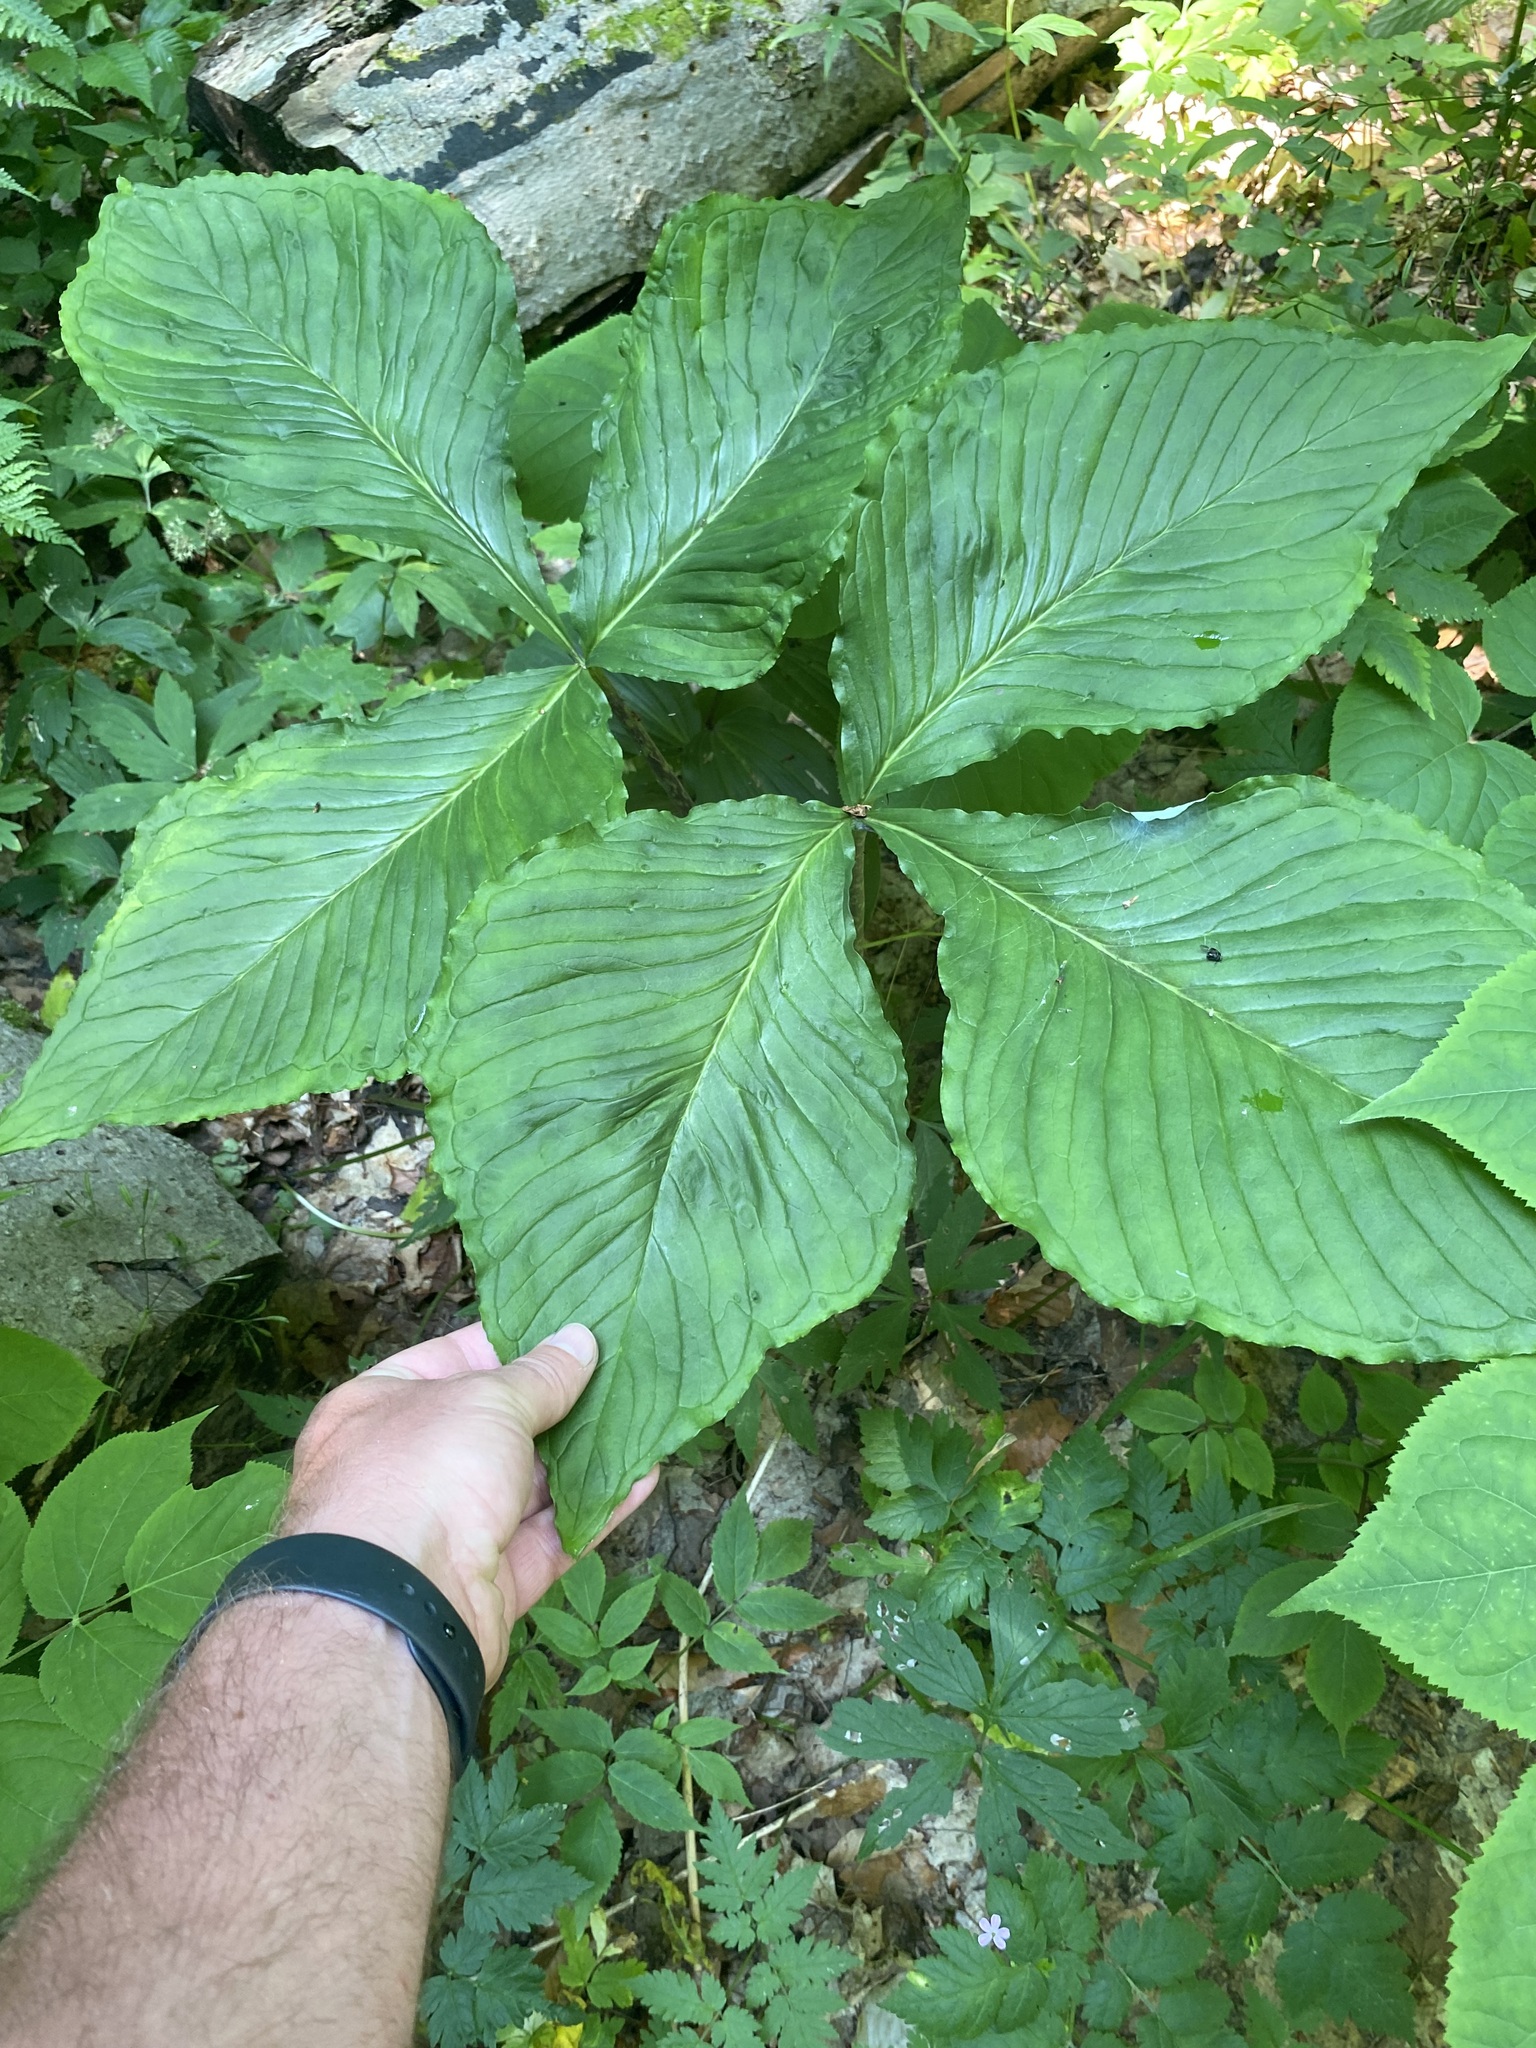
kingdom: Plantae
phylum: Tracheophyta
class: Liliopsida
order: Alismatales
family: Araceae
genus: Arisaema
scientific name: Arisaema triphyllum
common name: Jack-in-the-pulpit
